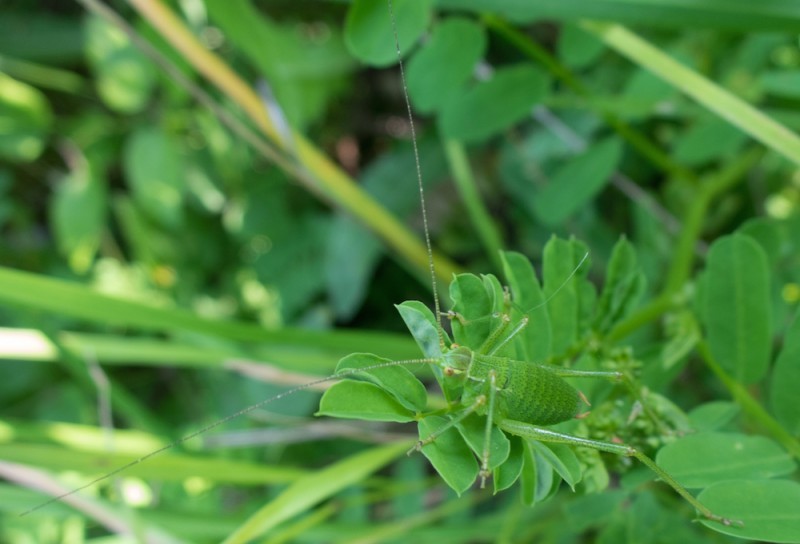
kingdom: Animalia
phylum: Arthropoda
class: Insecta
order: Orthoptera
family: Tettigoniidae
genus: Barbitistes
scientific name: Barbitistes serricauda
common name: Saw-tailed bush-cricket
